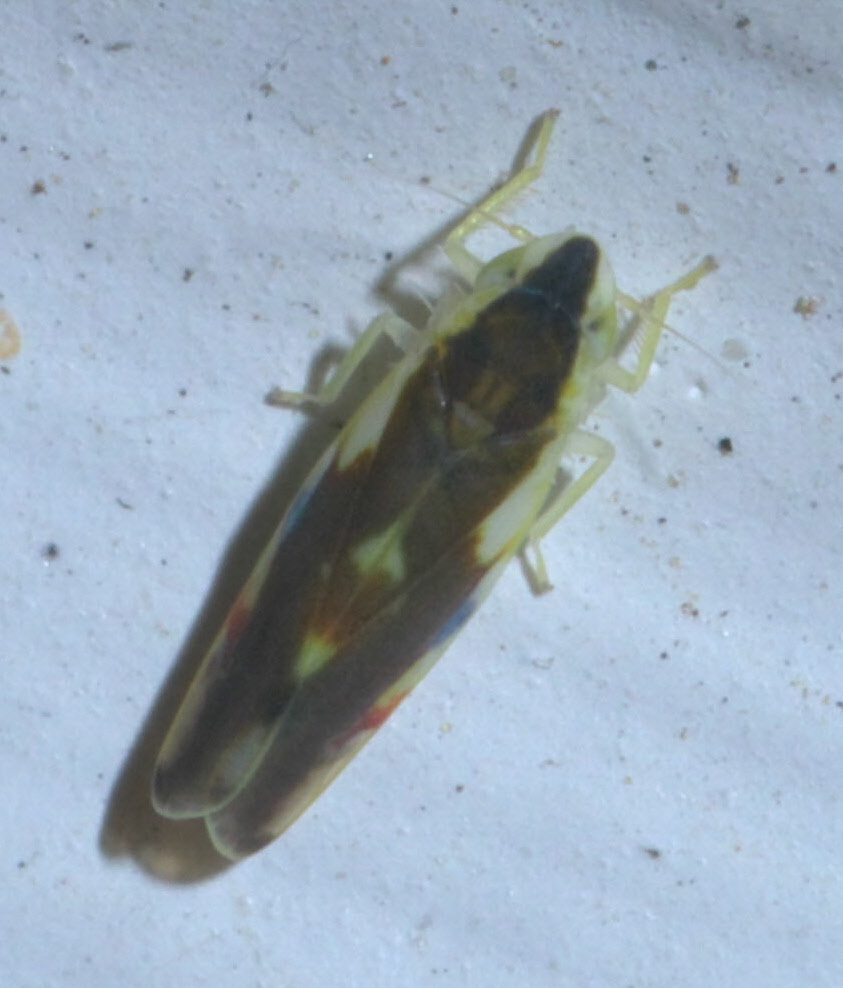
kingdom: Animalia
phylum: Arthropoda
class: Insecta
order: Hemiptera
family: Cicadellidae
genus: Erythroneura
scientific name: Erythroneura aclys
